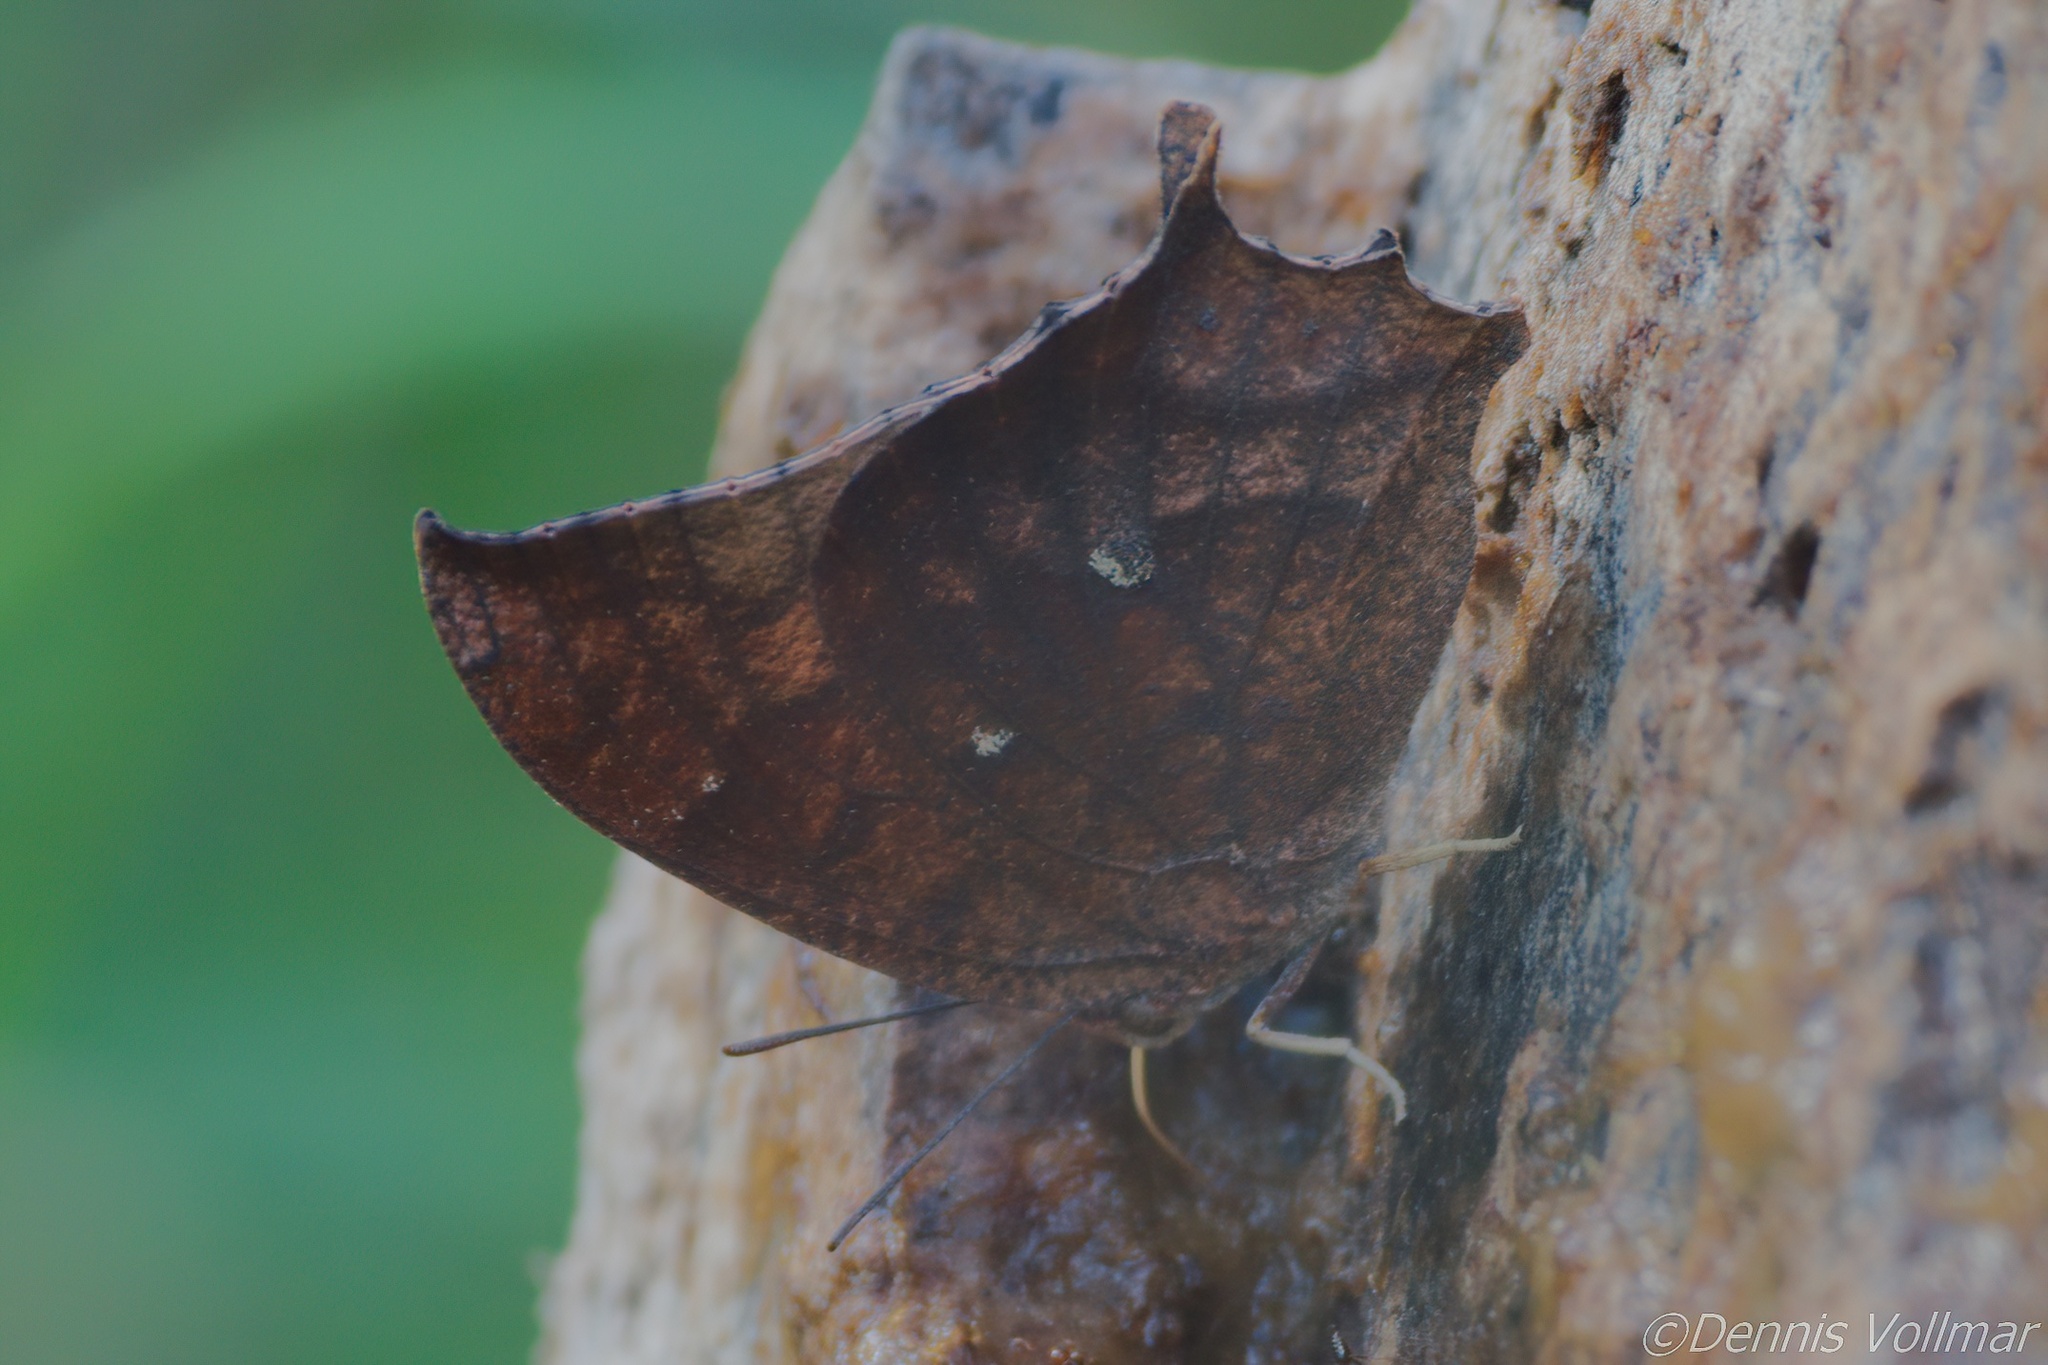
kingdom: Animalia
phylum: Arthropoda
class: Insecta
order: Lepidoptera
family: Nymphalidae
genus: Anaea
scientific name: Anaea aidea
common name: Tropical leafwing
